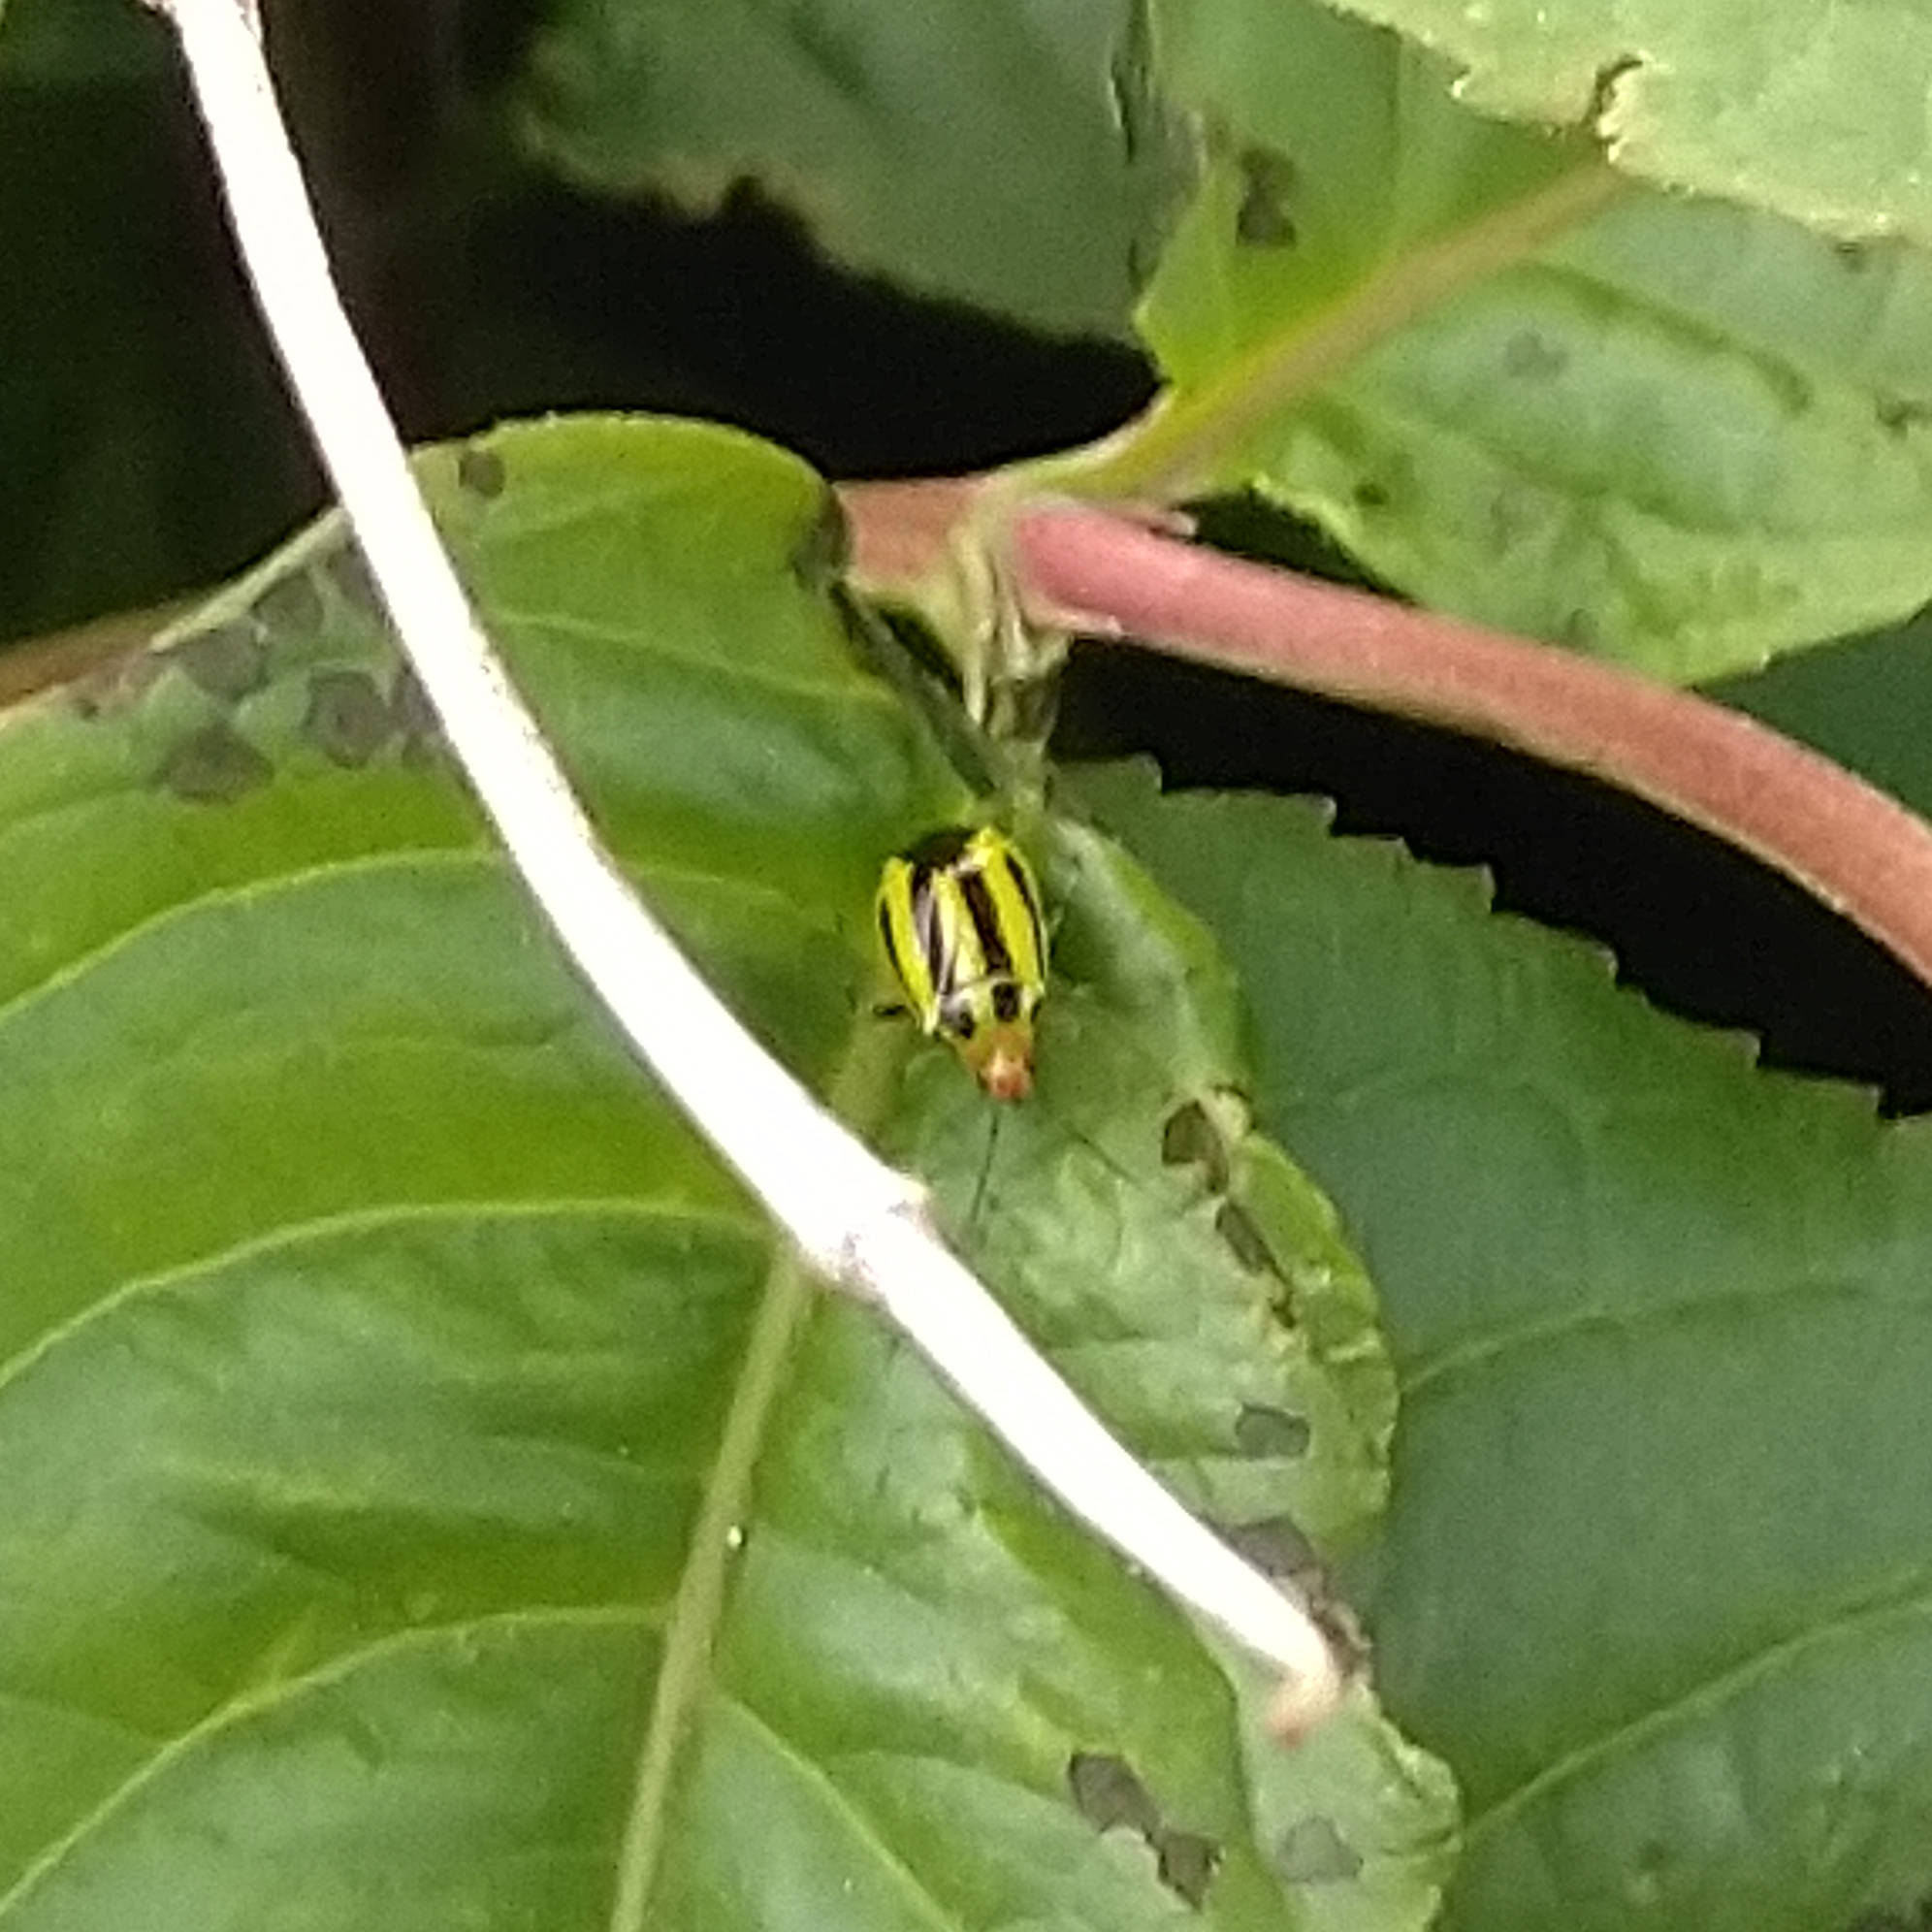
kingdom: Animalia
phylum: Arthropoda
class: Insecta
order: Hemiptera
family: Miridae
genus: Poecilocapsus
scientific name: Poecilocapsus lineatus
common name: Four-lined plant bug
